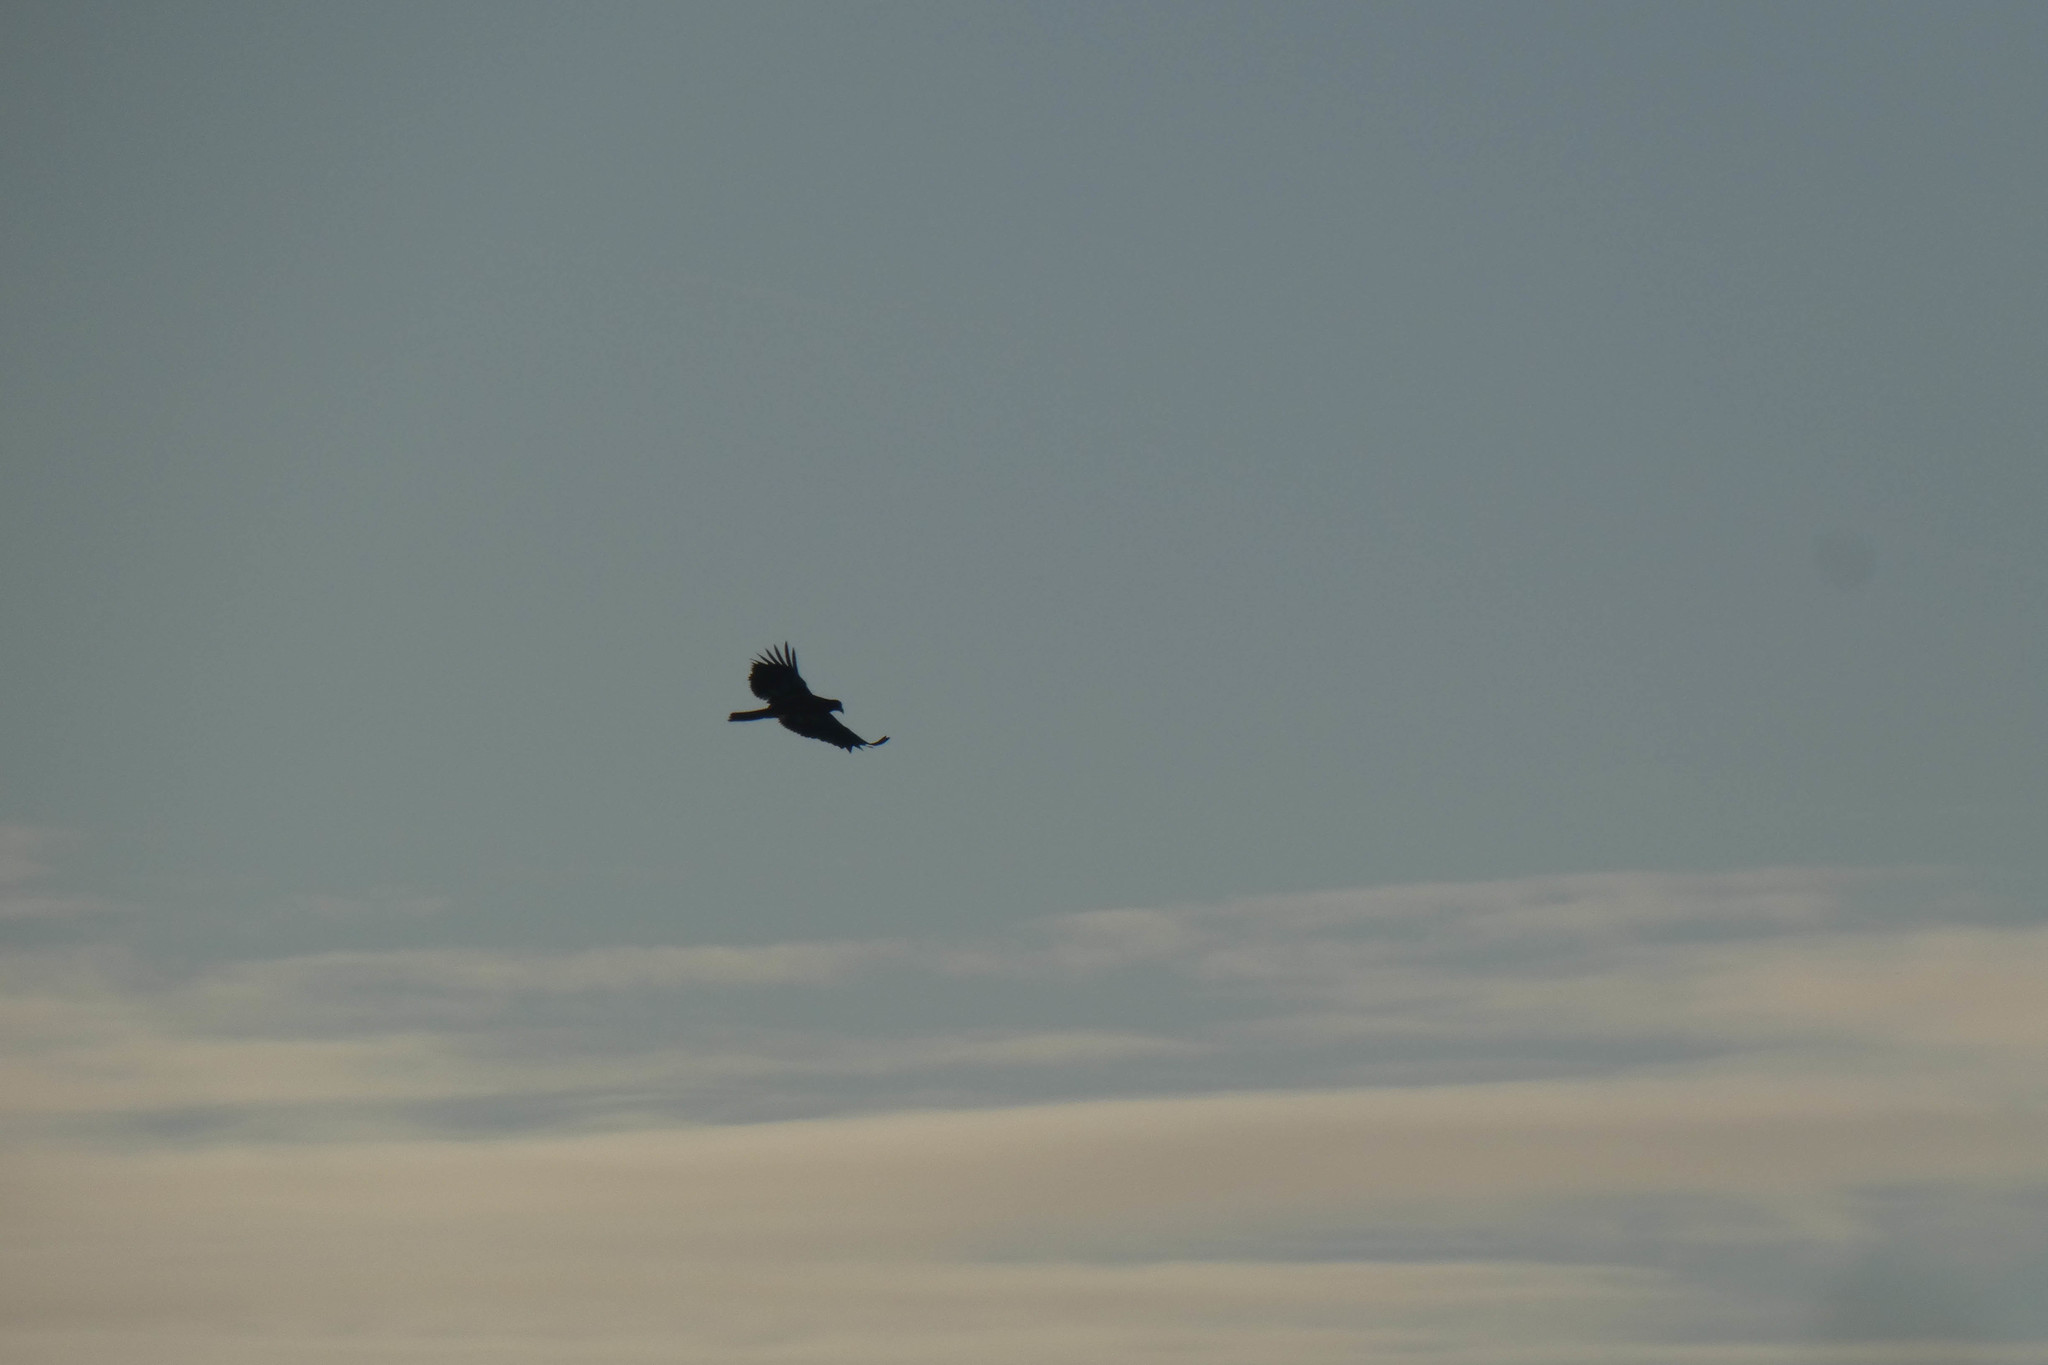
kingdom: Animalia
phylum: Chordata
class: Aves
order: Accipitriformes
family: Accipitridae
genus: Haliaeetus
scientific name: Haliaeetus leucocephalus
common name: Bald eagle
